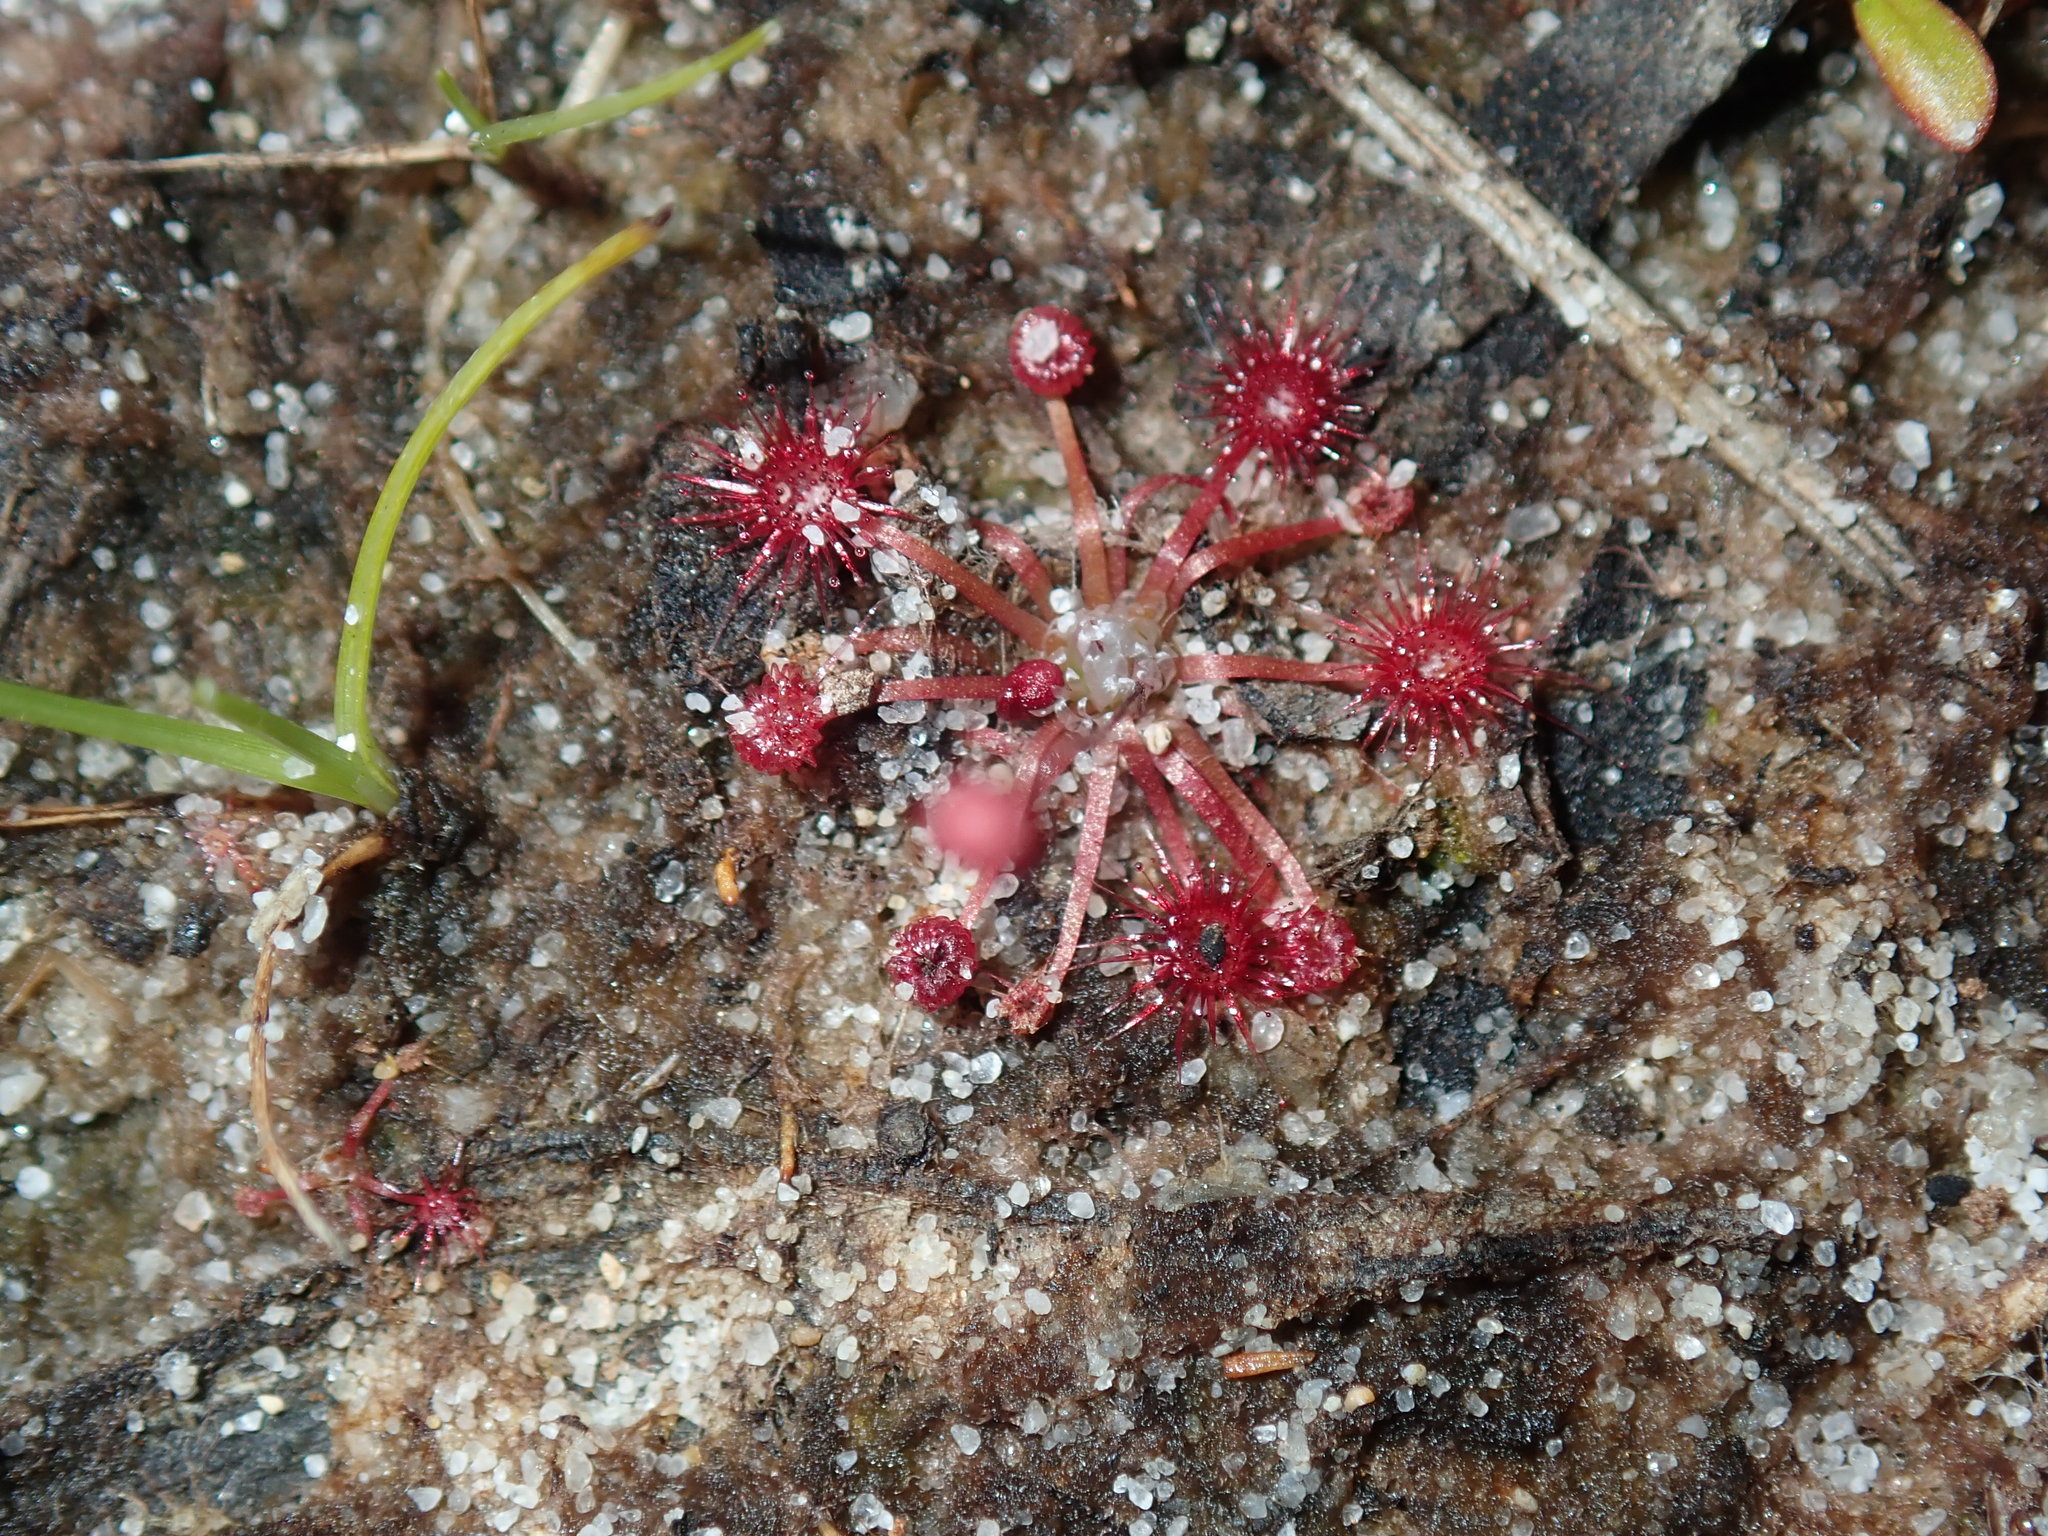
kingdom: Plantae
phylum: Tracheophyta
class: Magnoliopsida
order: Caryophyllales
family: Droseraceae
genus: Drosera
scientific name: Drosera pygmaea
